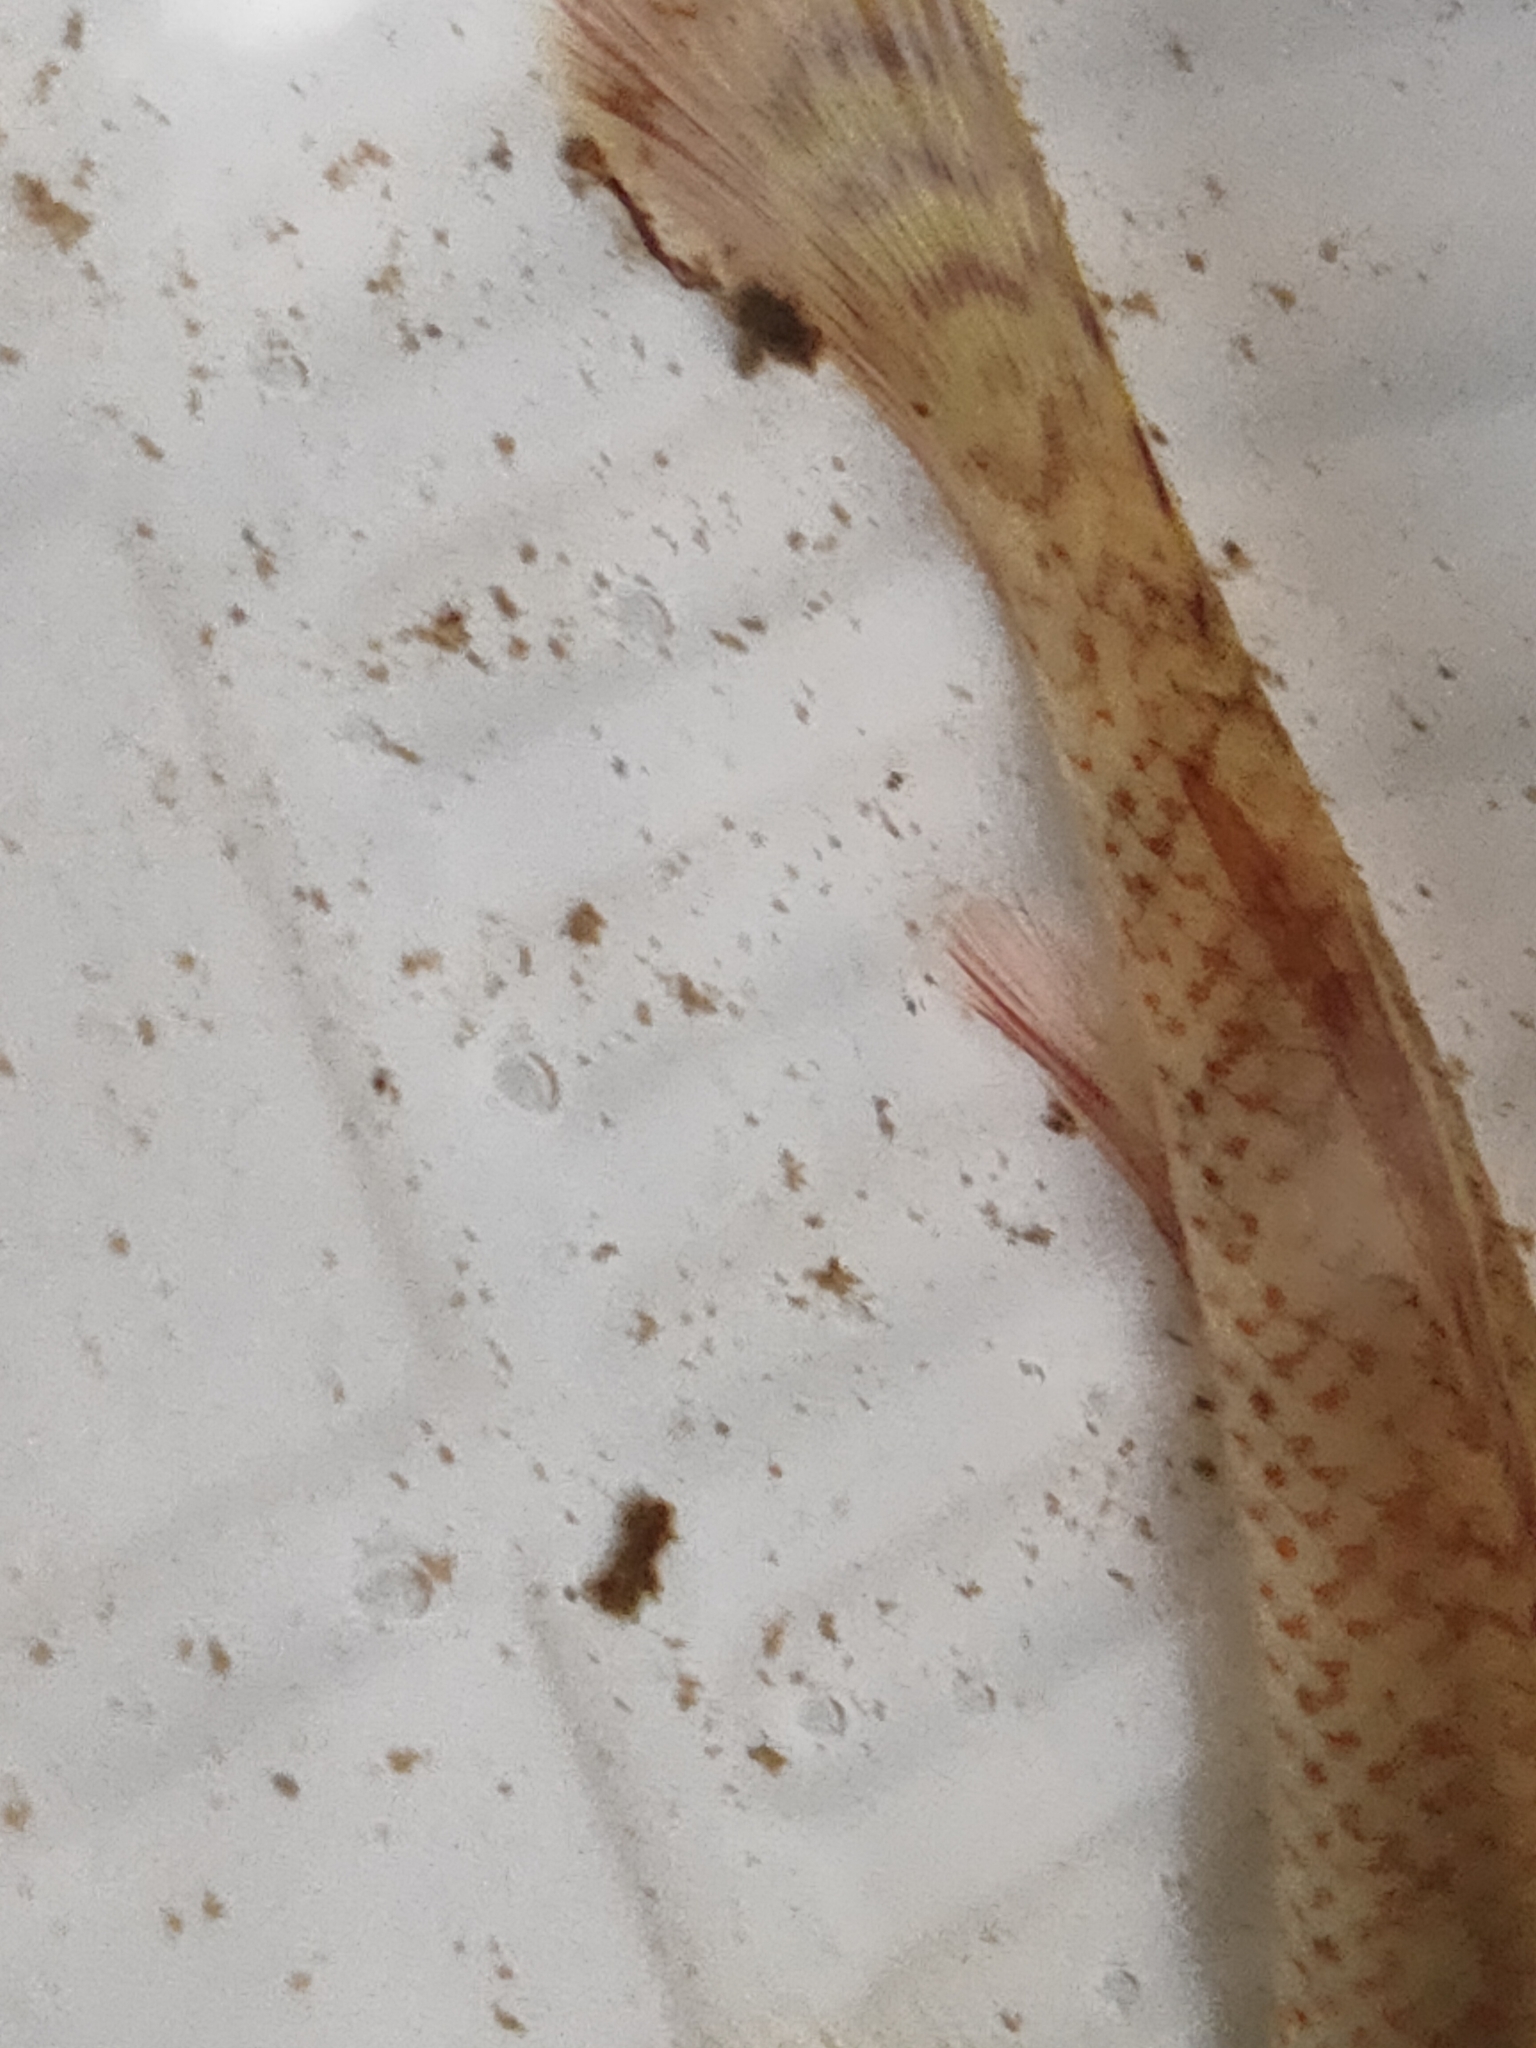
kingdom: Animalia
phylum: Chordata
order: Perciformes
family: Gobiidae
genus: Rhinogobius
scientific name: Rhinogobius nagoyae
